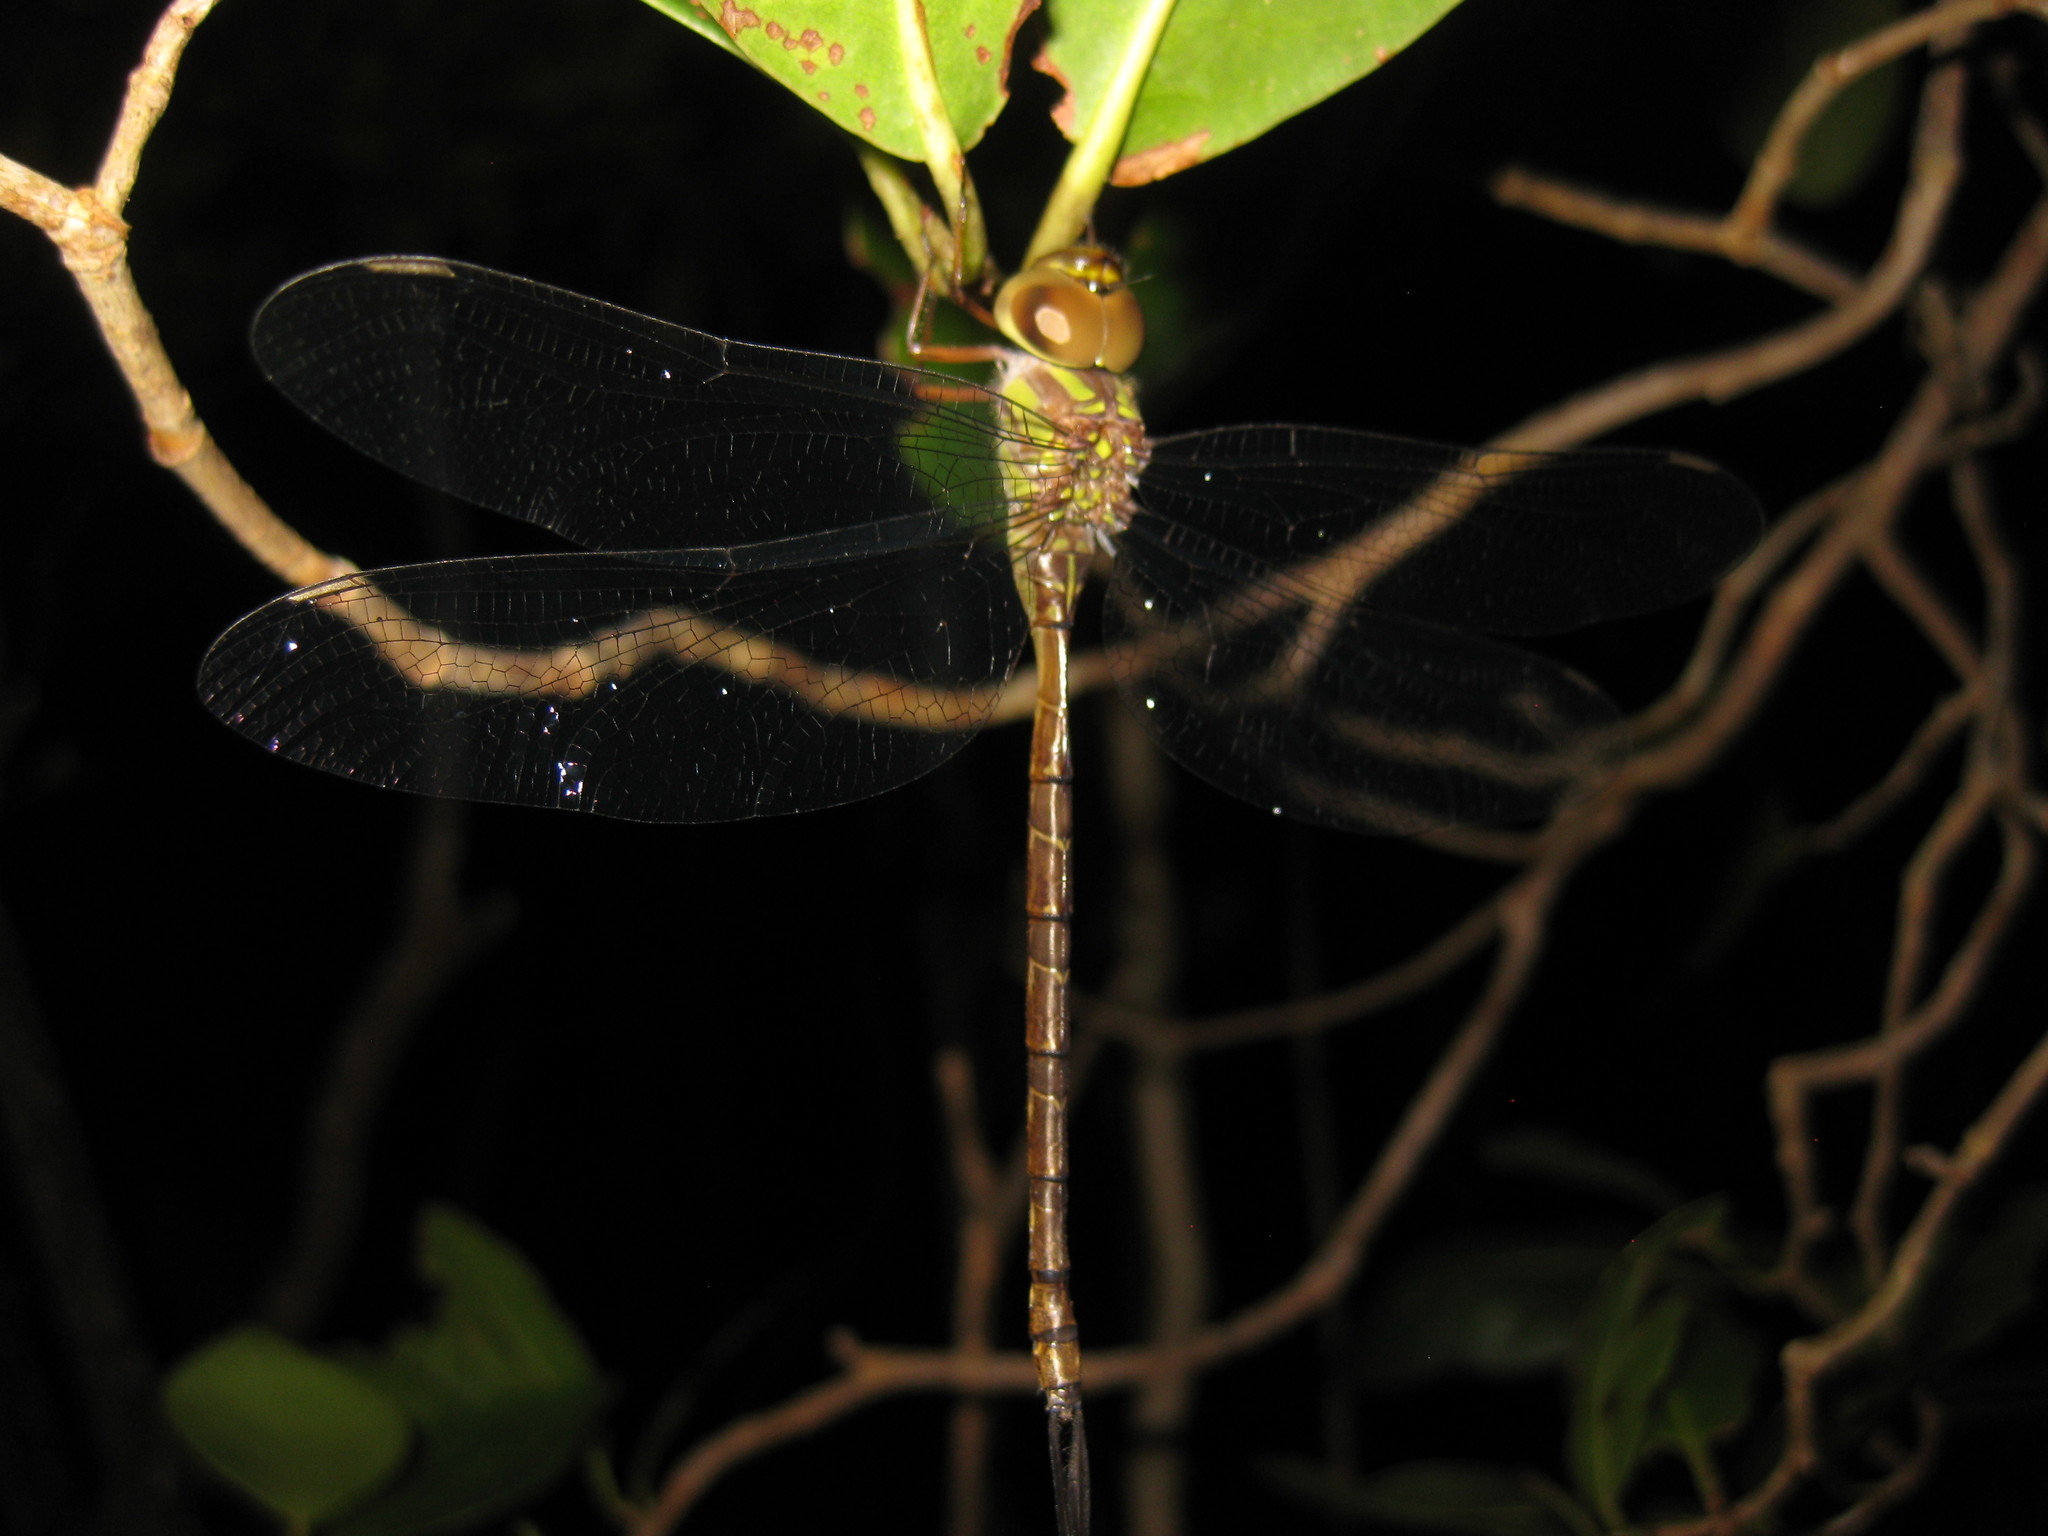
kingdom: Animalia
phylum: Arthropoda
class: Insecta
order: Odonata
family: Aeshnidae
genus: Triacanthagyna
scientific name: Triacanthagyna trifida
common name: Phantom darner
